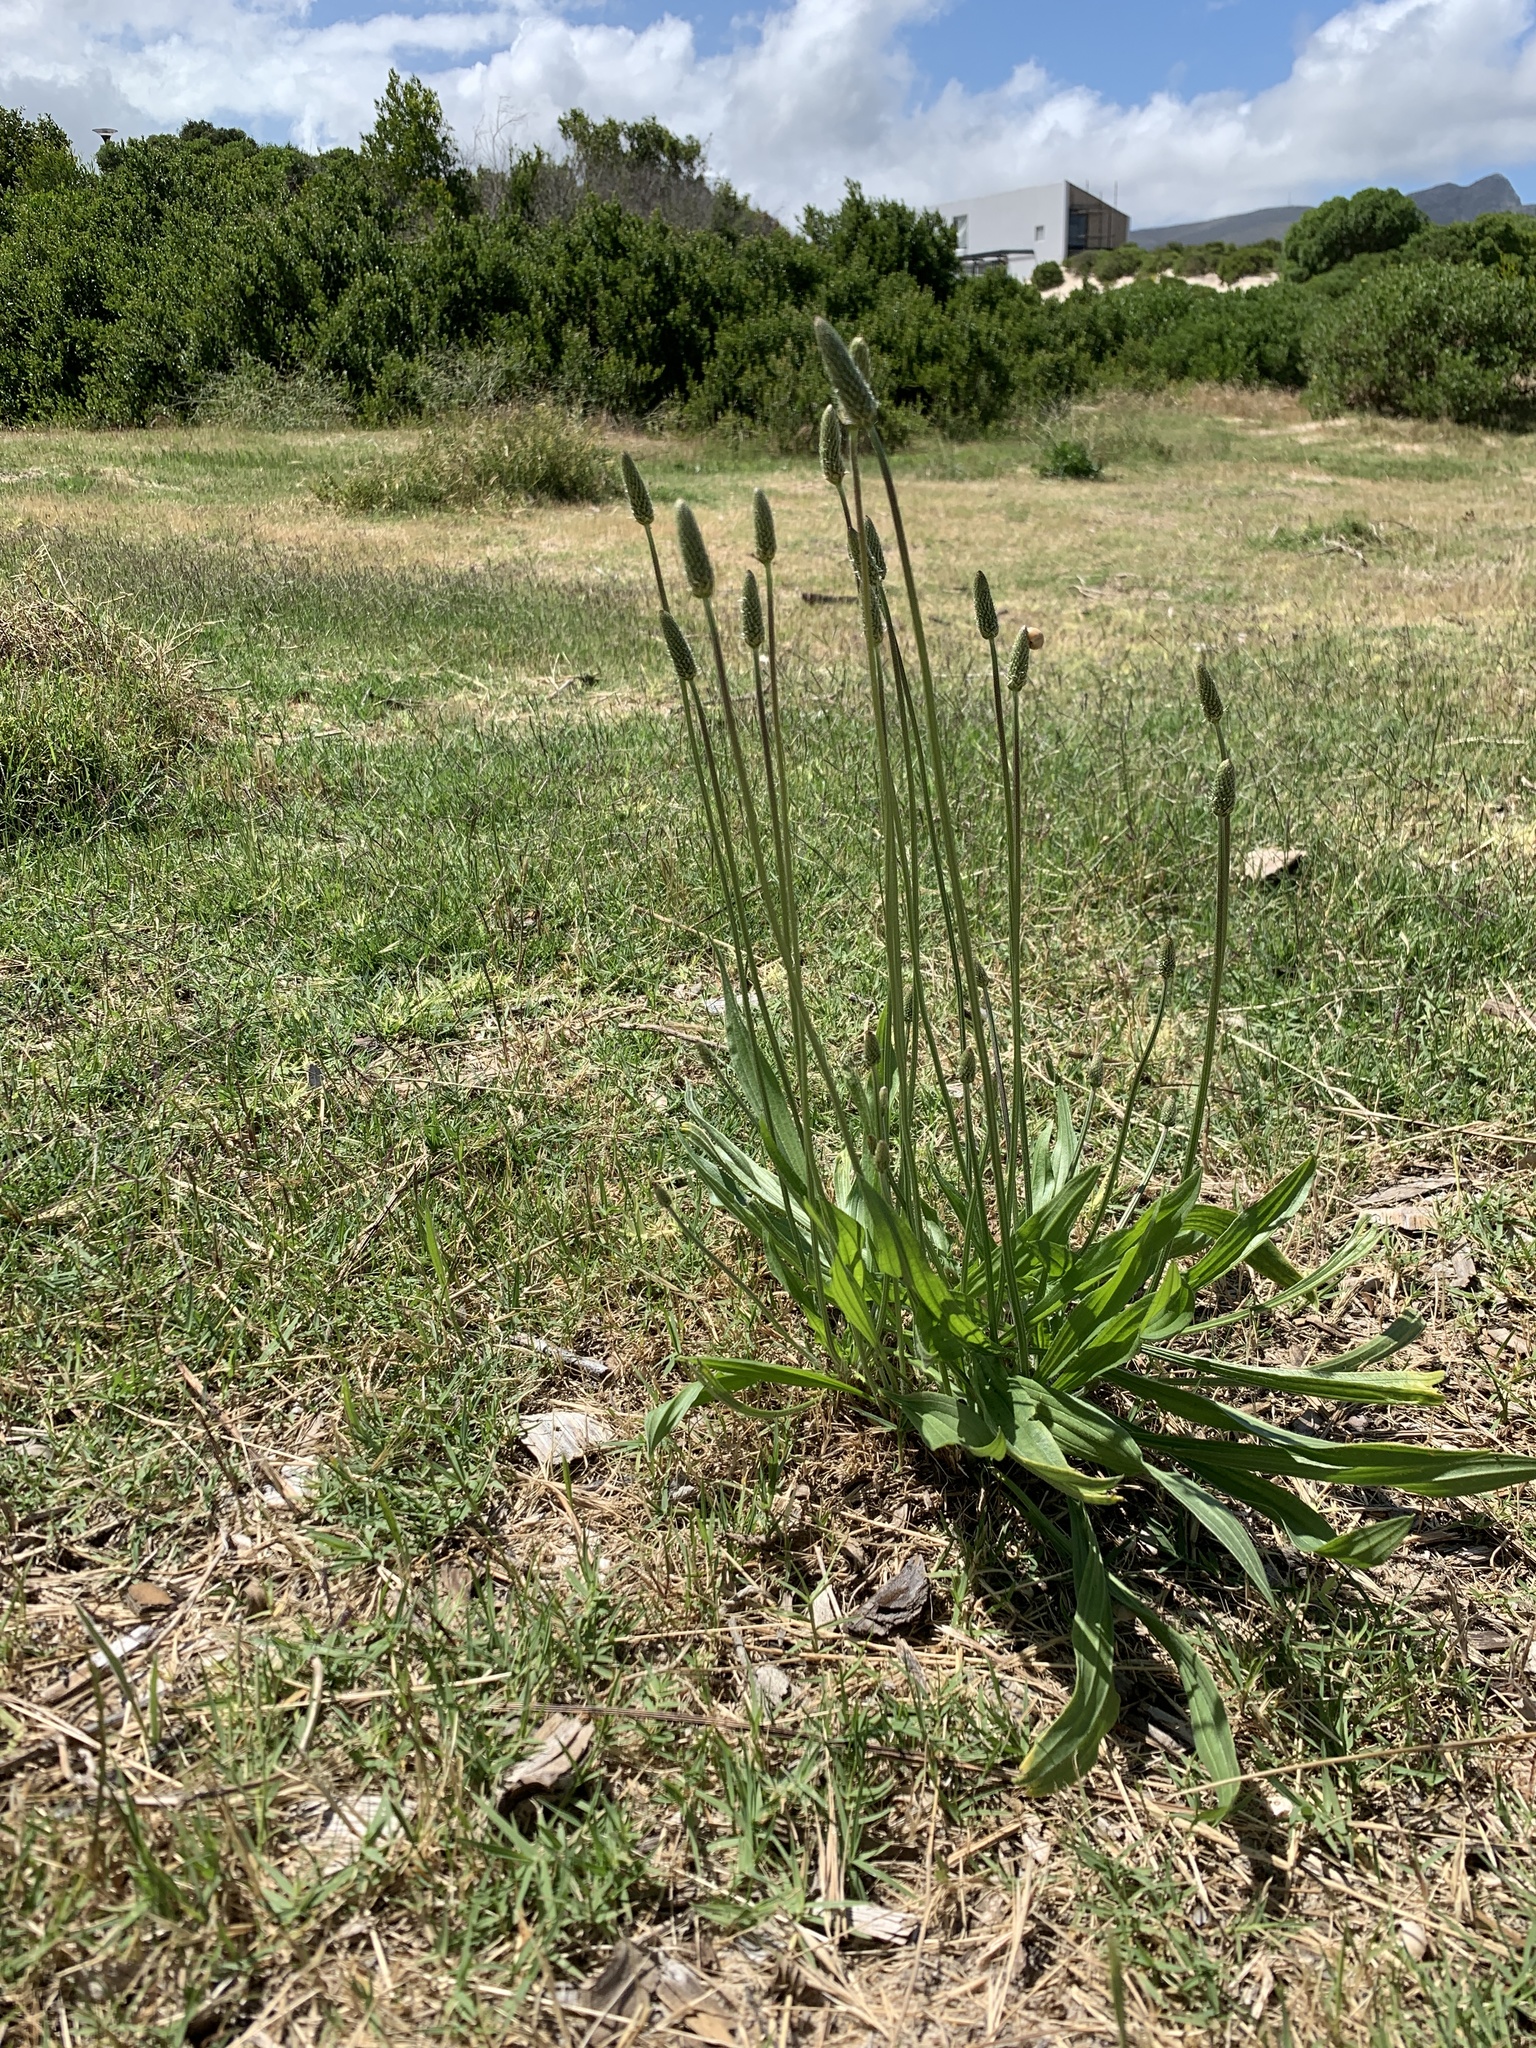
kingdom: Plantae
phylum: Tracheophyta
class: Magnoliopsida
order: Lamiales
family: Plantaginaceae
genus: Plantago
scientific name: Plantago lanceolata
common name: Ribwort plantain
